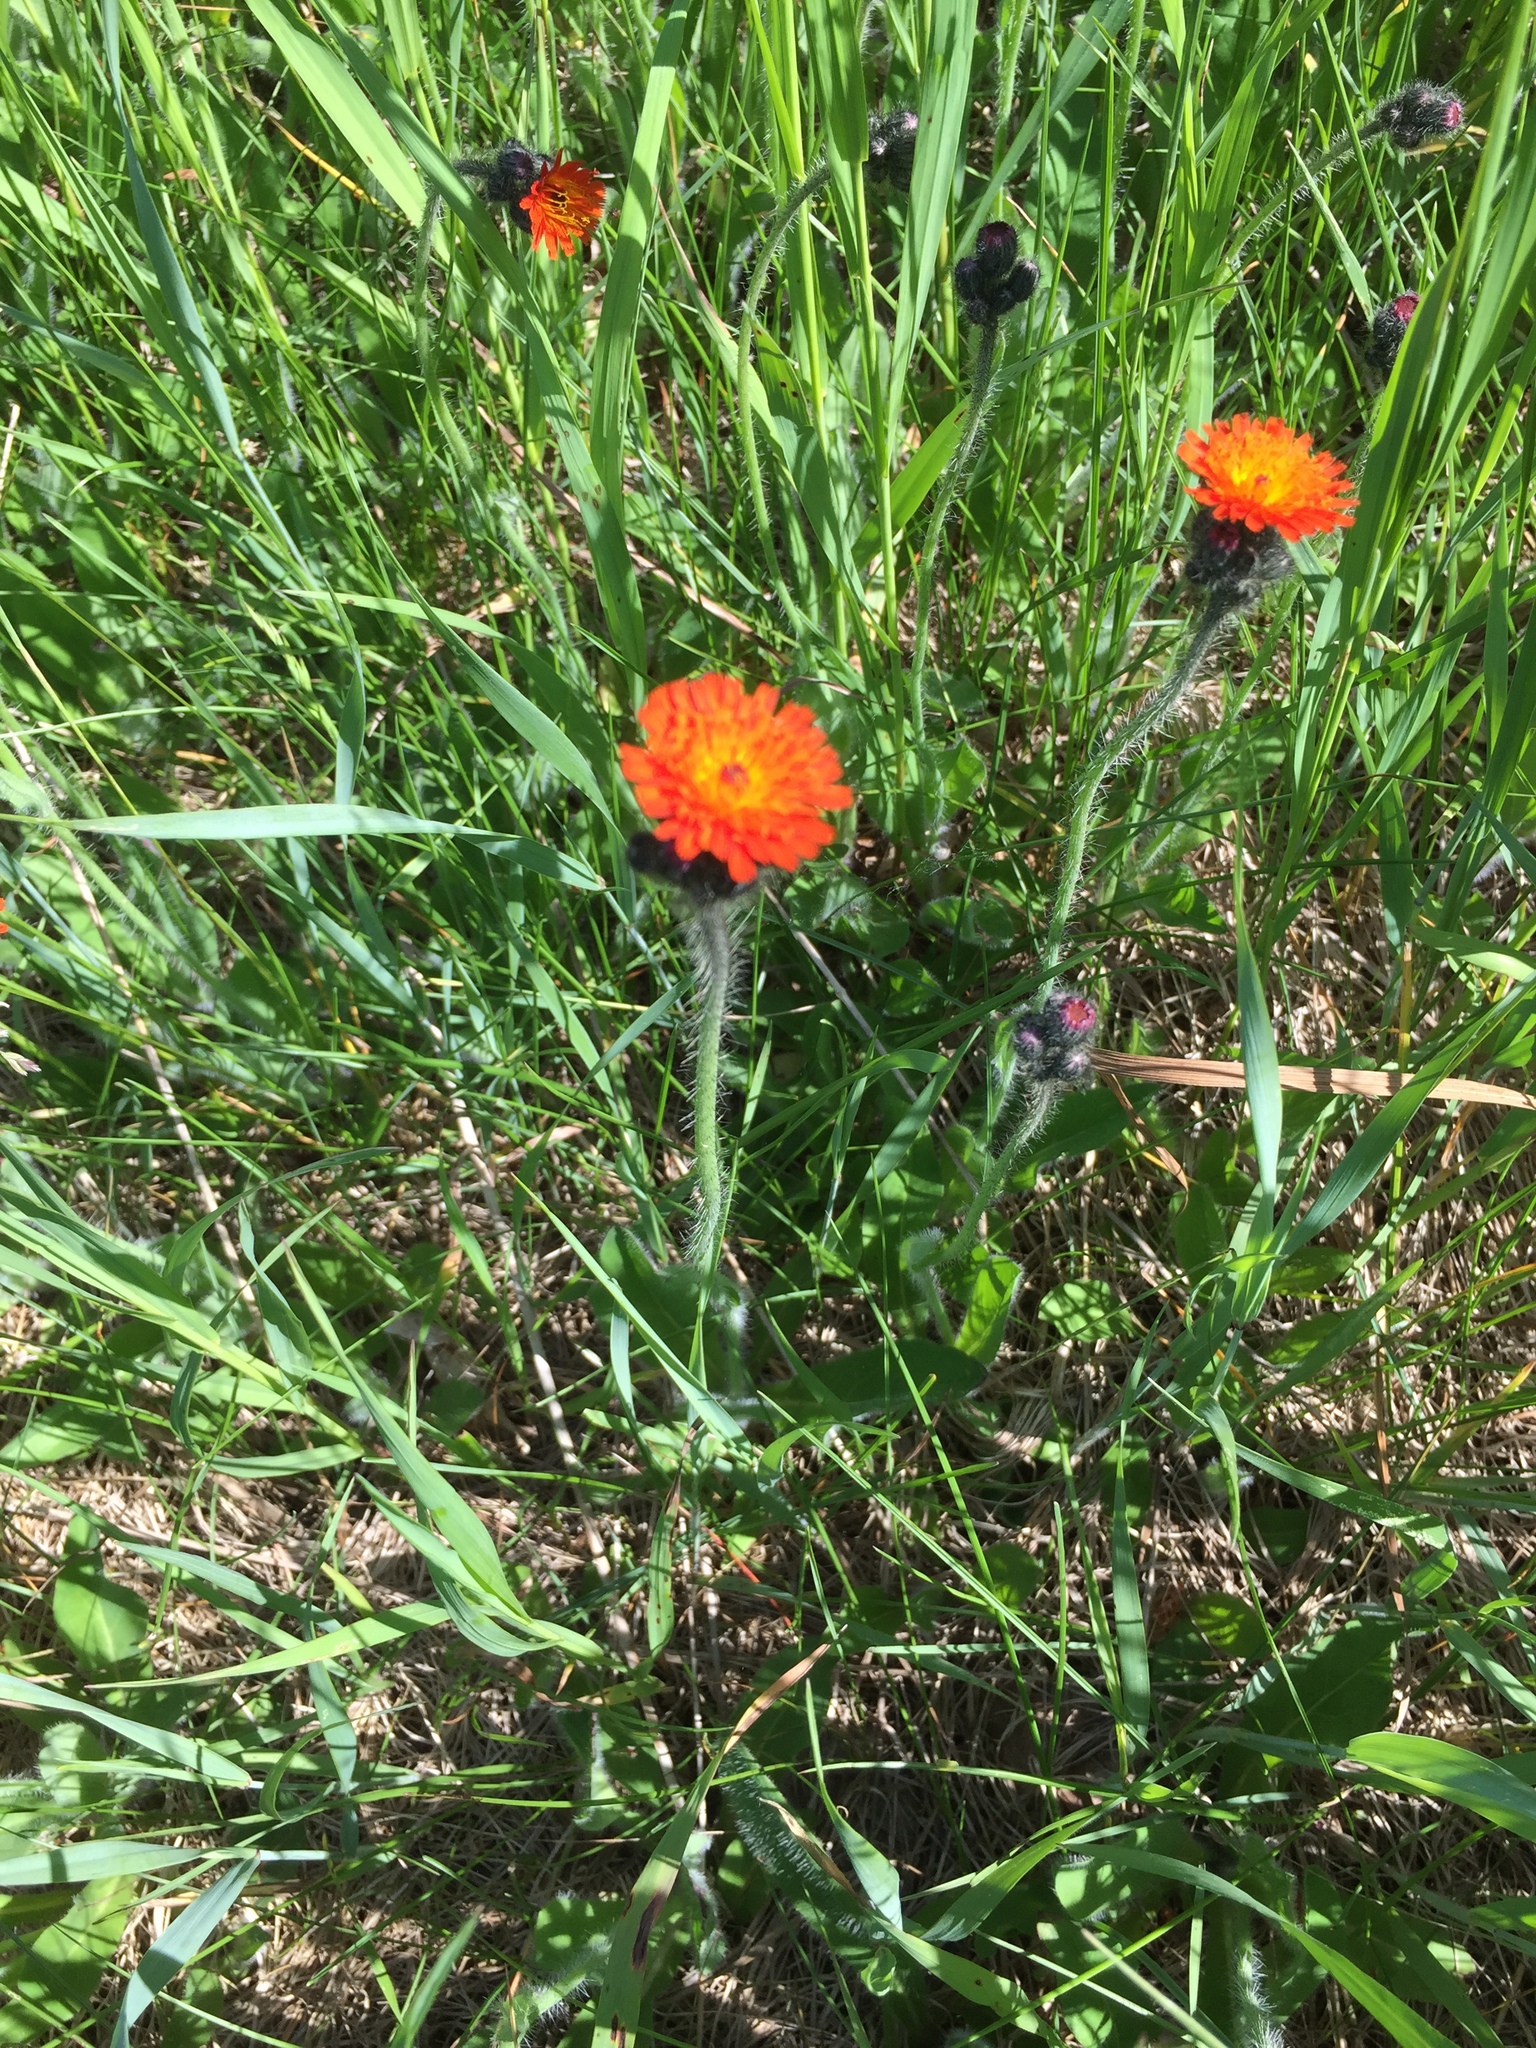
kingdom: Plantae
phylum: Tracheophyta
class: Magnoliopsida
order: Asterales
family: Asteraceae
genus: Pilosella
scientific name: Pilosella aurantiaca
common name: Fox-and-cubs
